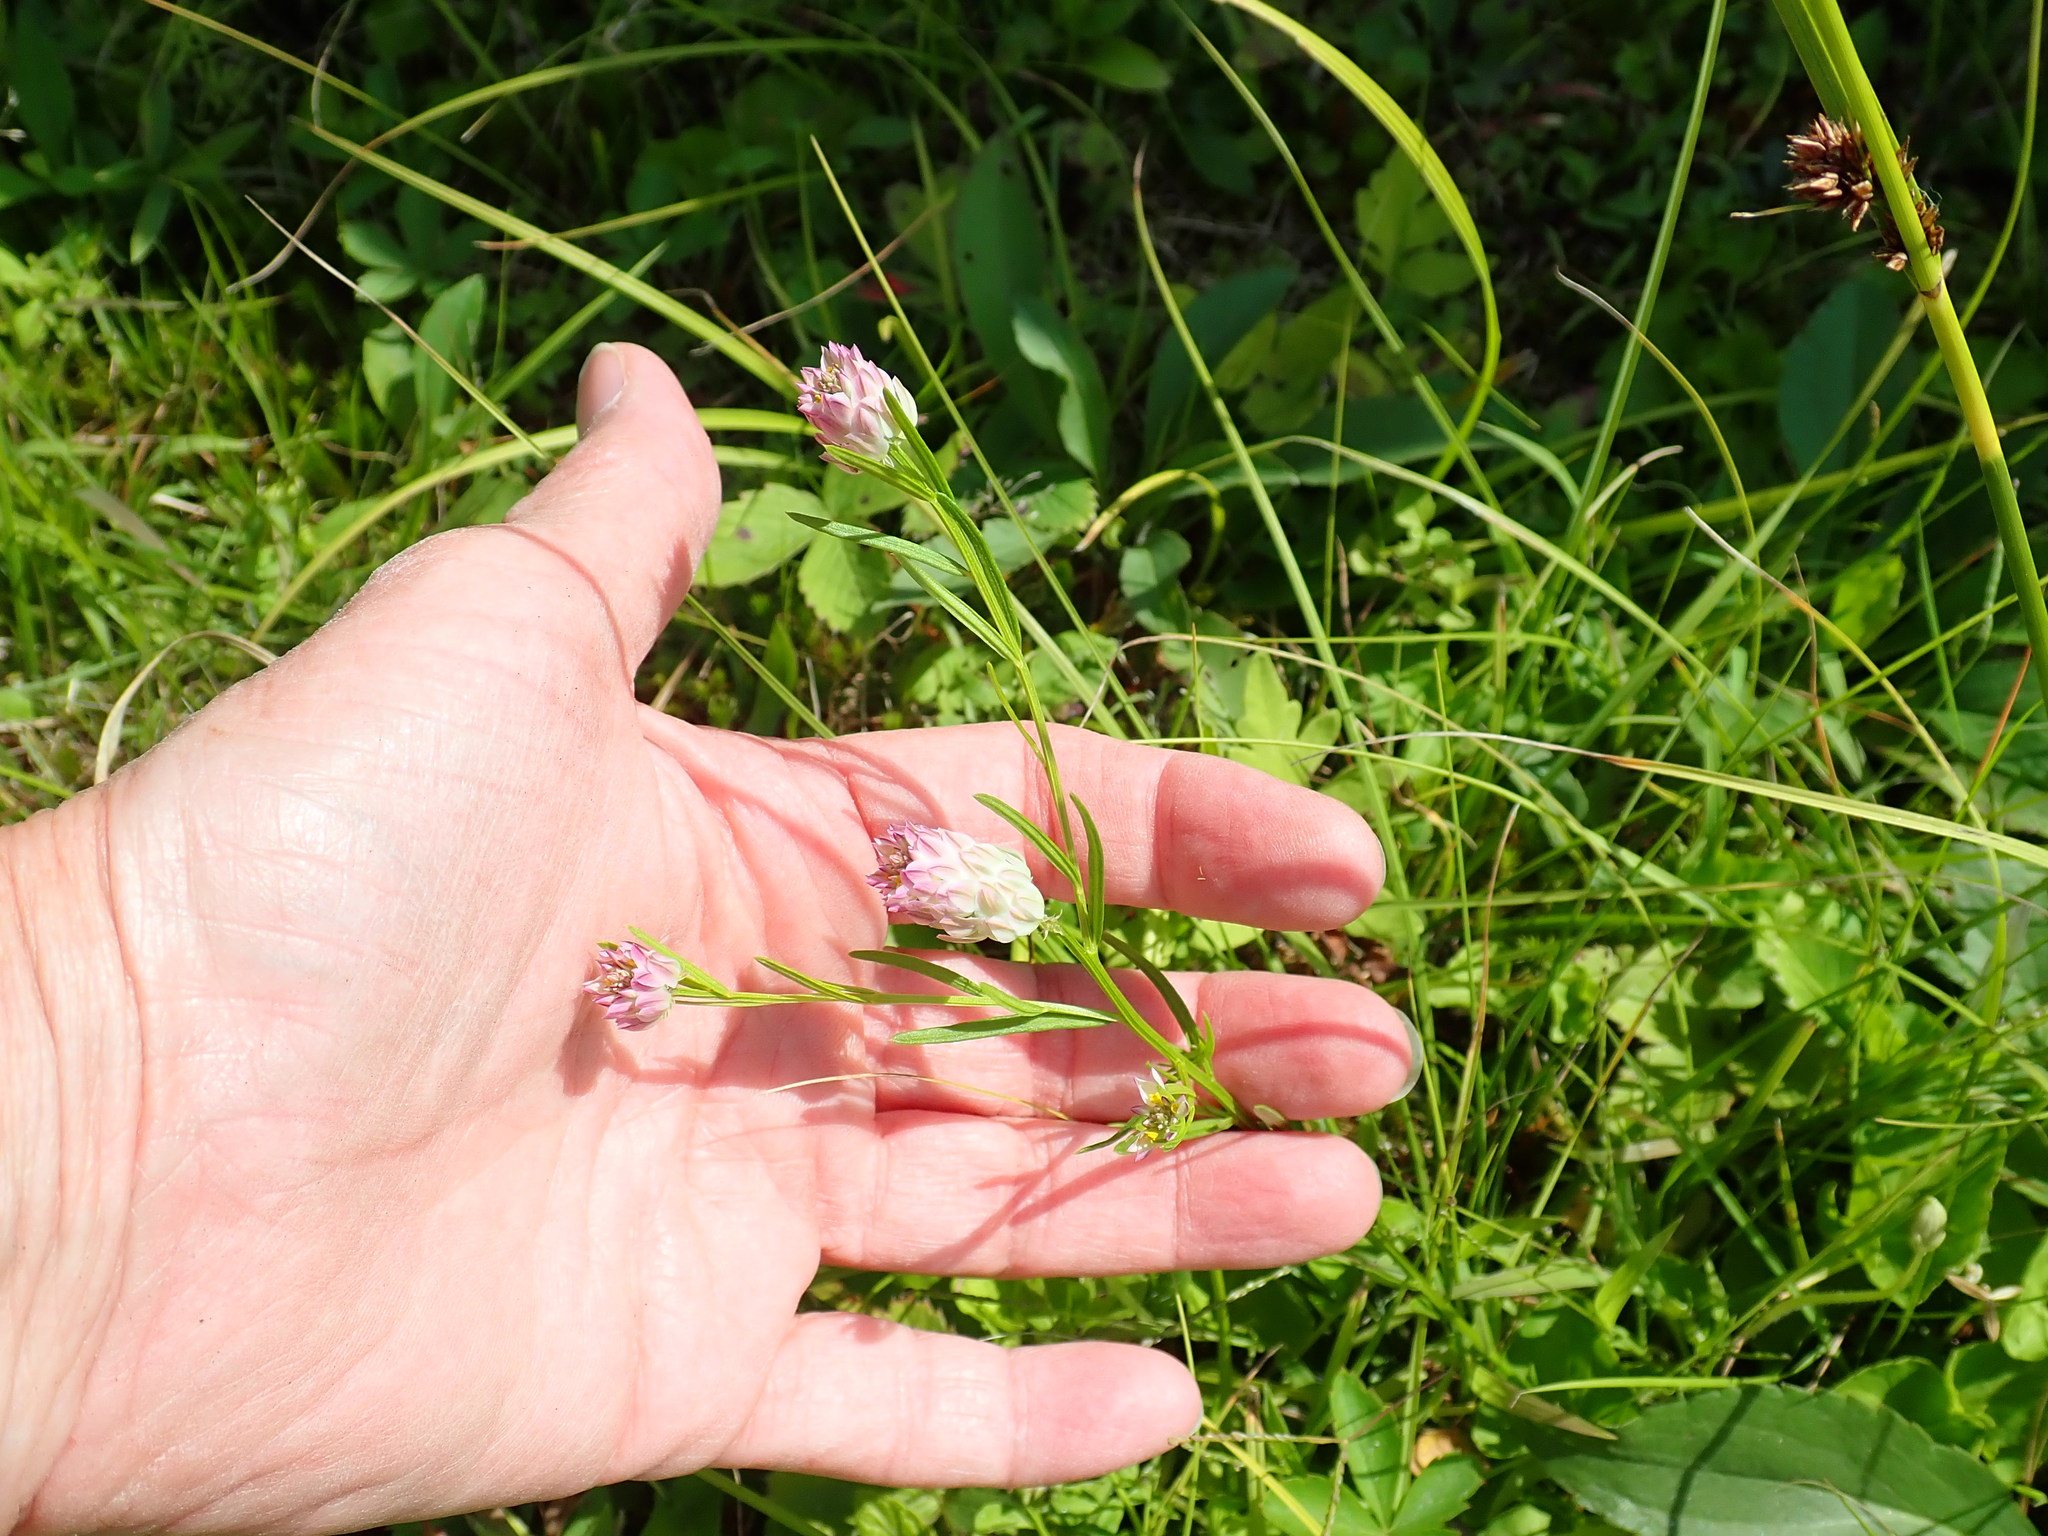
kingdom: Plantae
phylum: Tracheophyta
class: Magnoliopsida
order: Fabales
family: Polygalaceae
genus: Polygala
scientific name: Polygala sanguinea
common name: Blood milkwort
